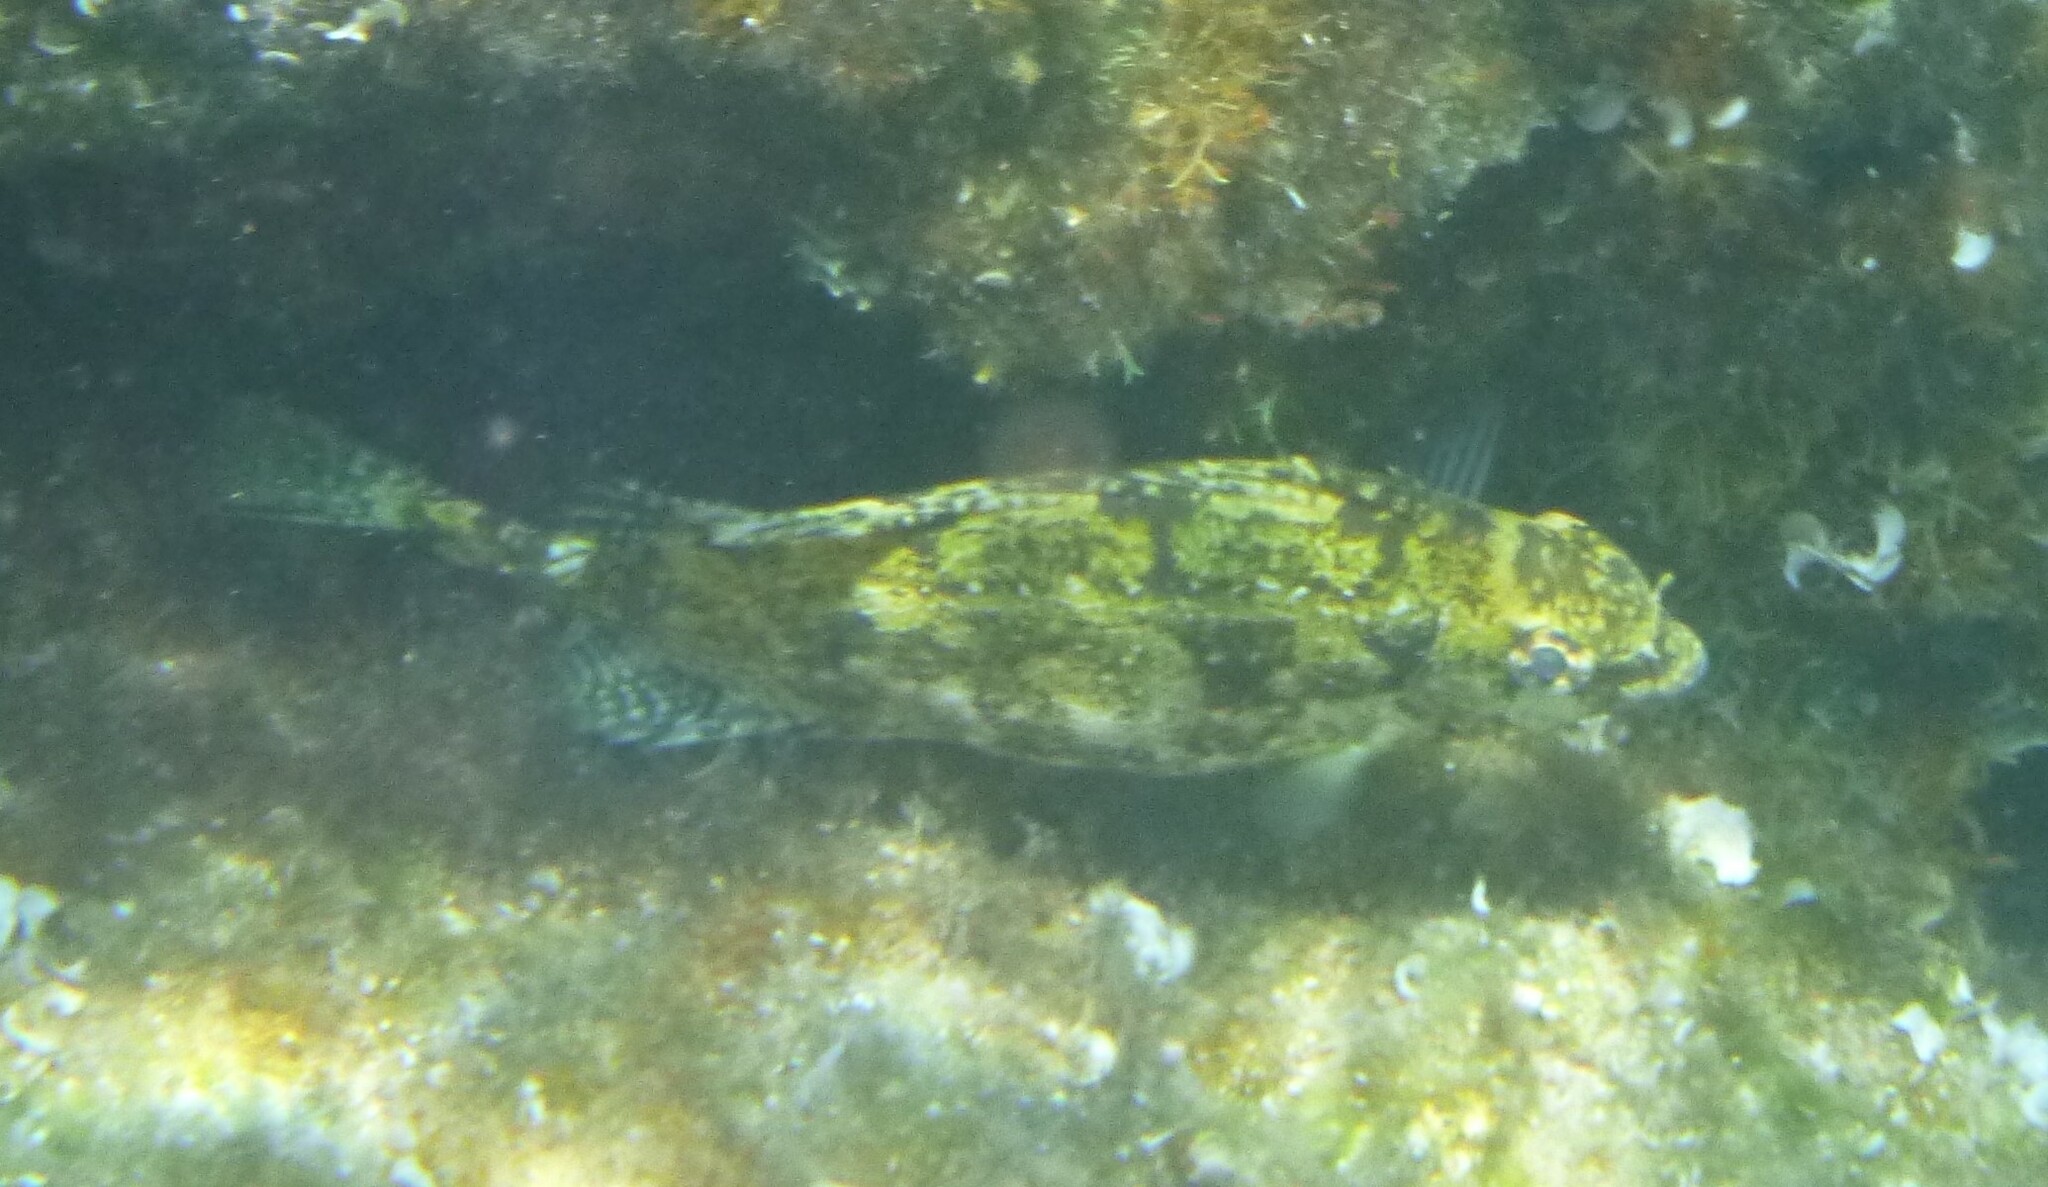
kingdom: Animalia
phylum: Chordata
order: Perciformes
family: Siganidae
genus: Siganus
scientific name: Siganus luridus
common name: Dusky spinefoot
